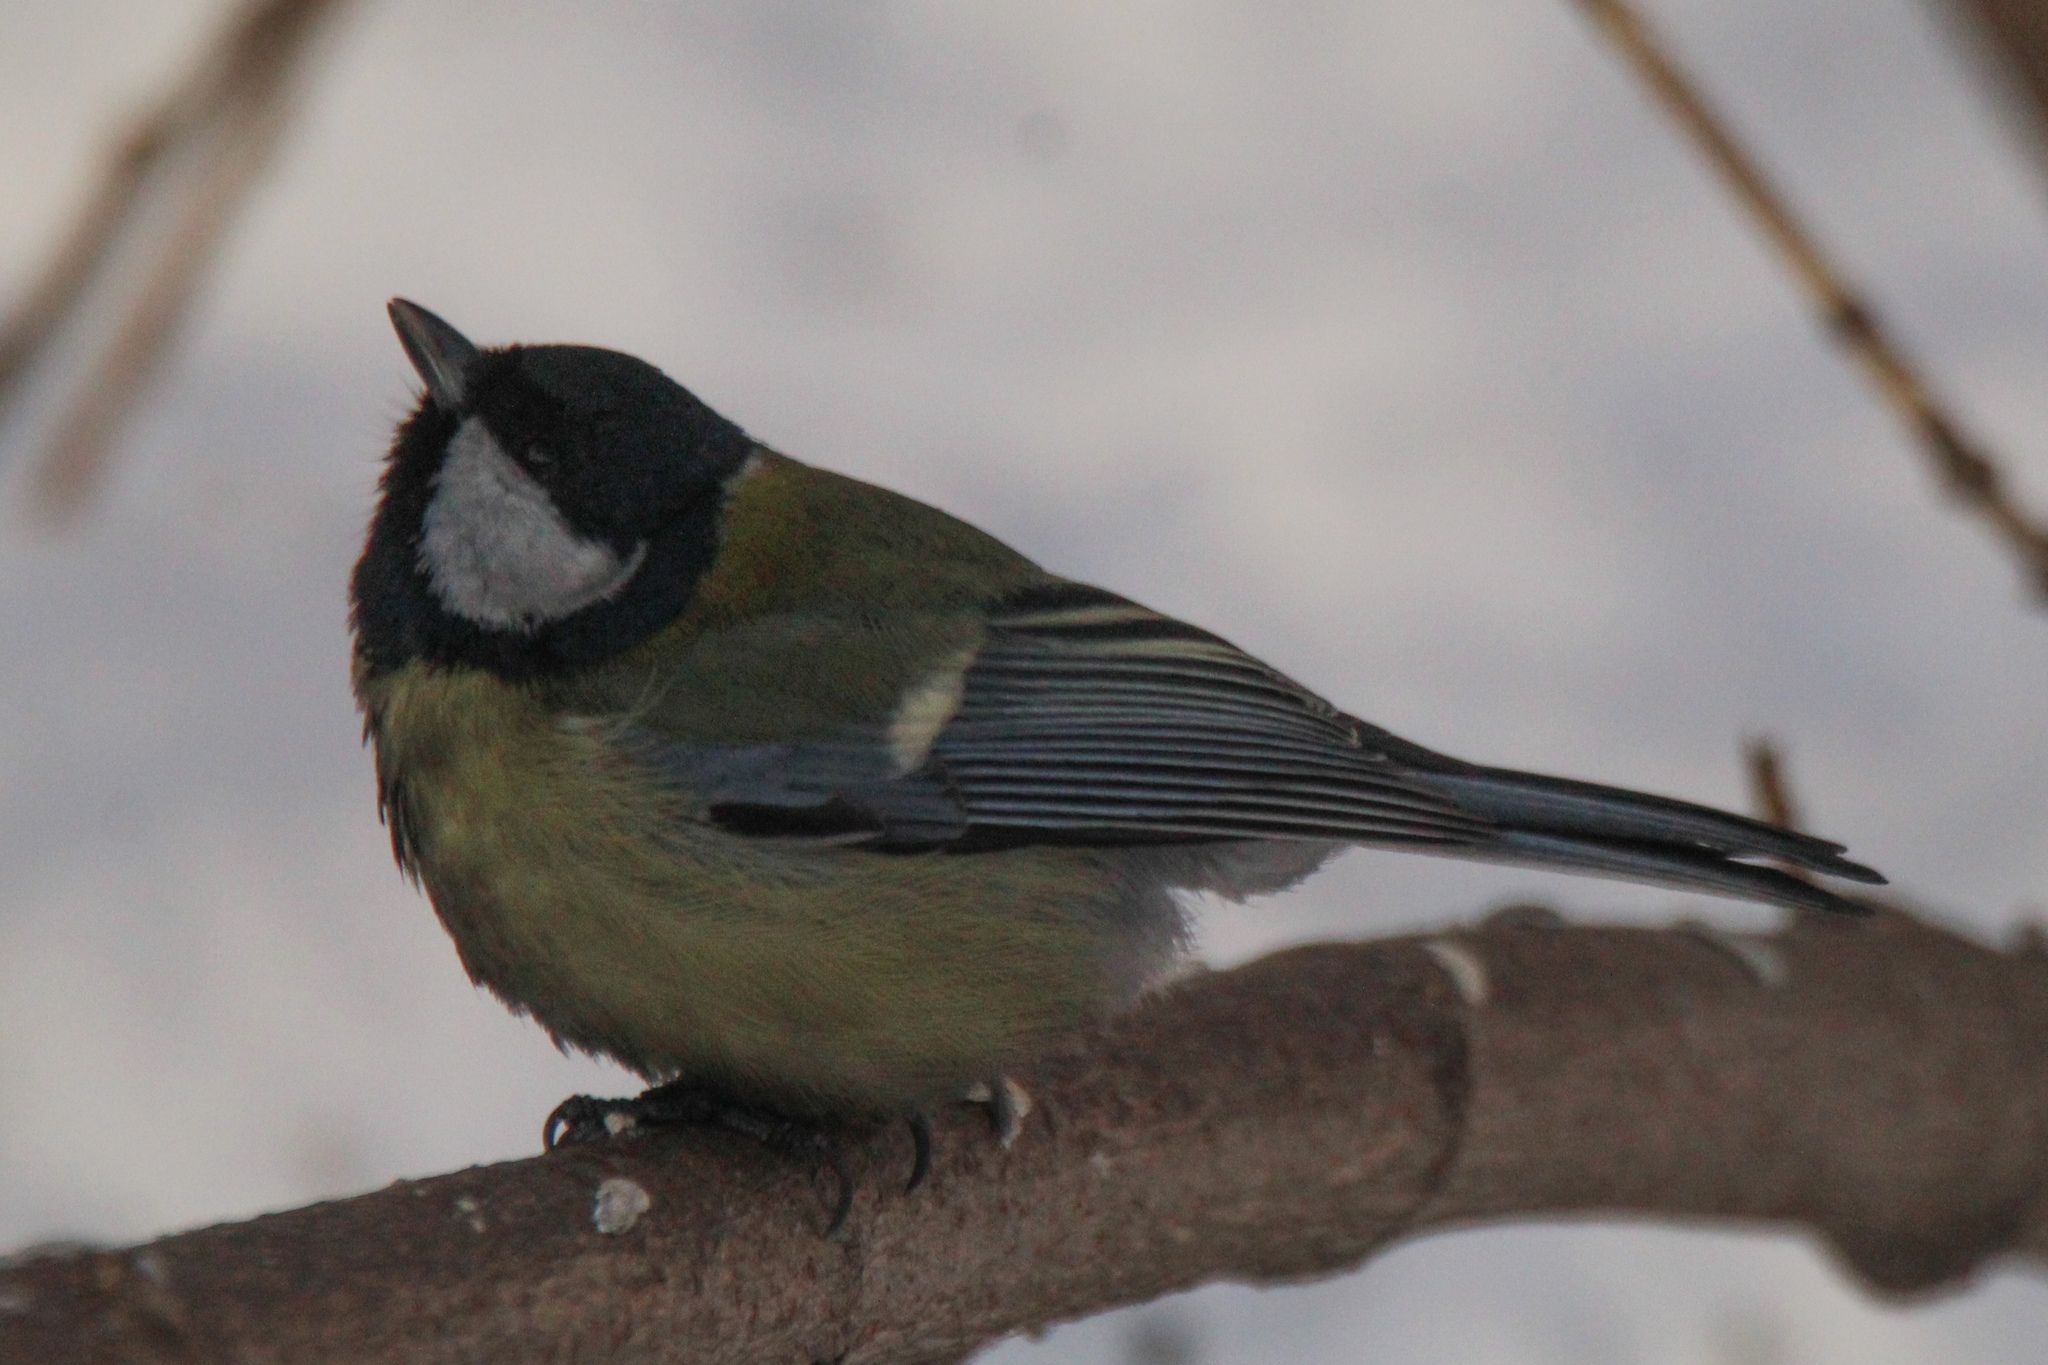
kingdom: Animalia
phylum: Chordata
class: Aves
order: Passeriformes
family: Paridae
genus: Parus
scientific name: Parus major
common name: Great tit
